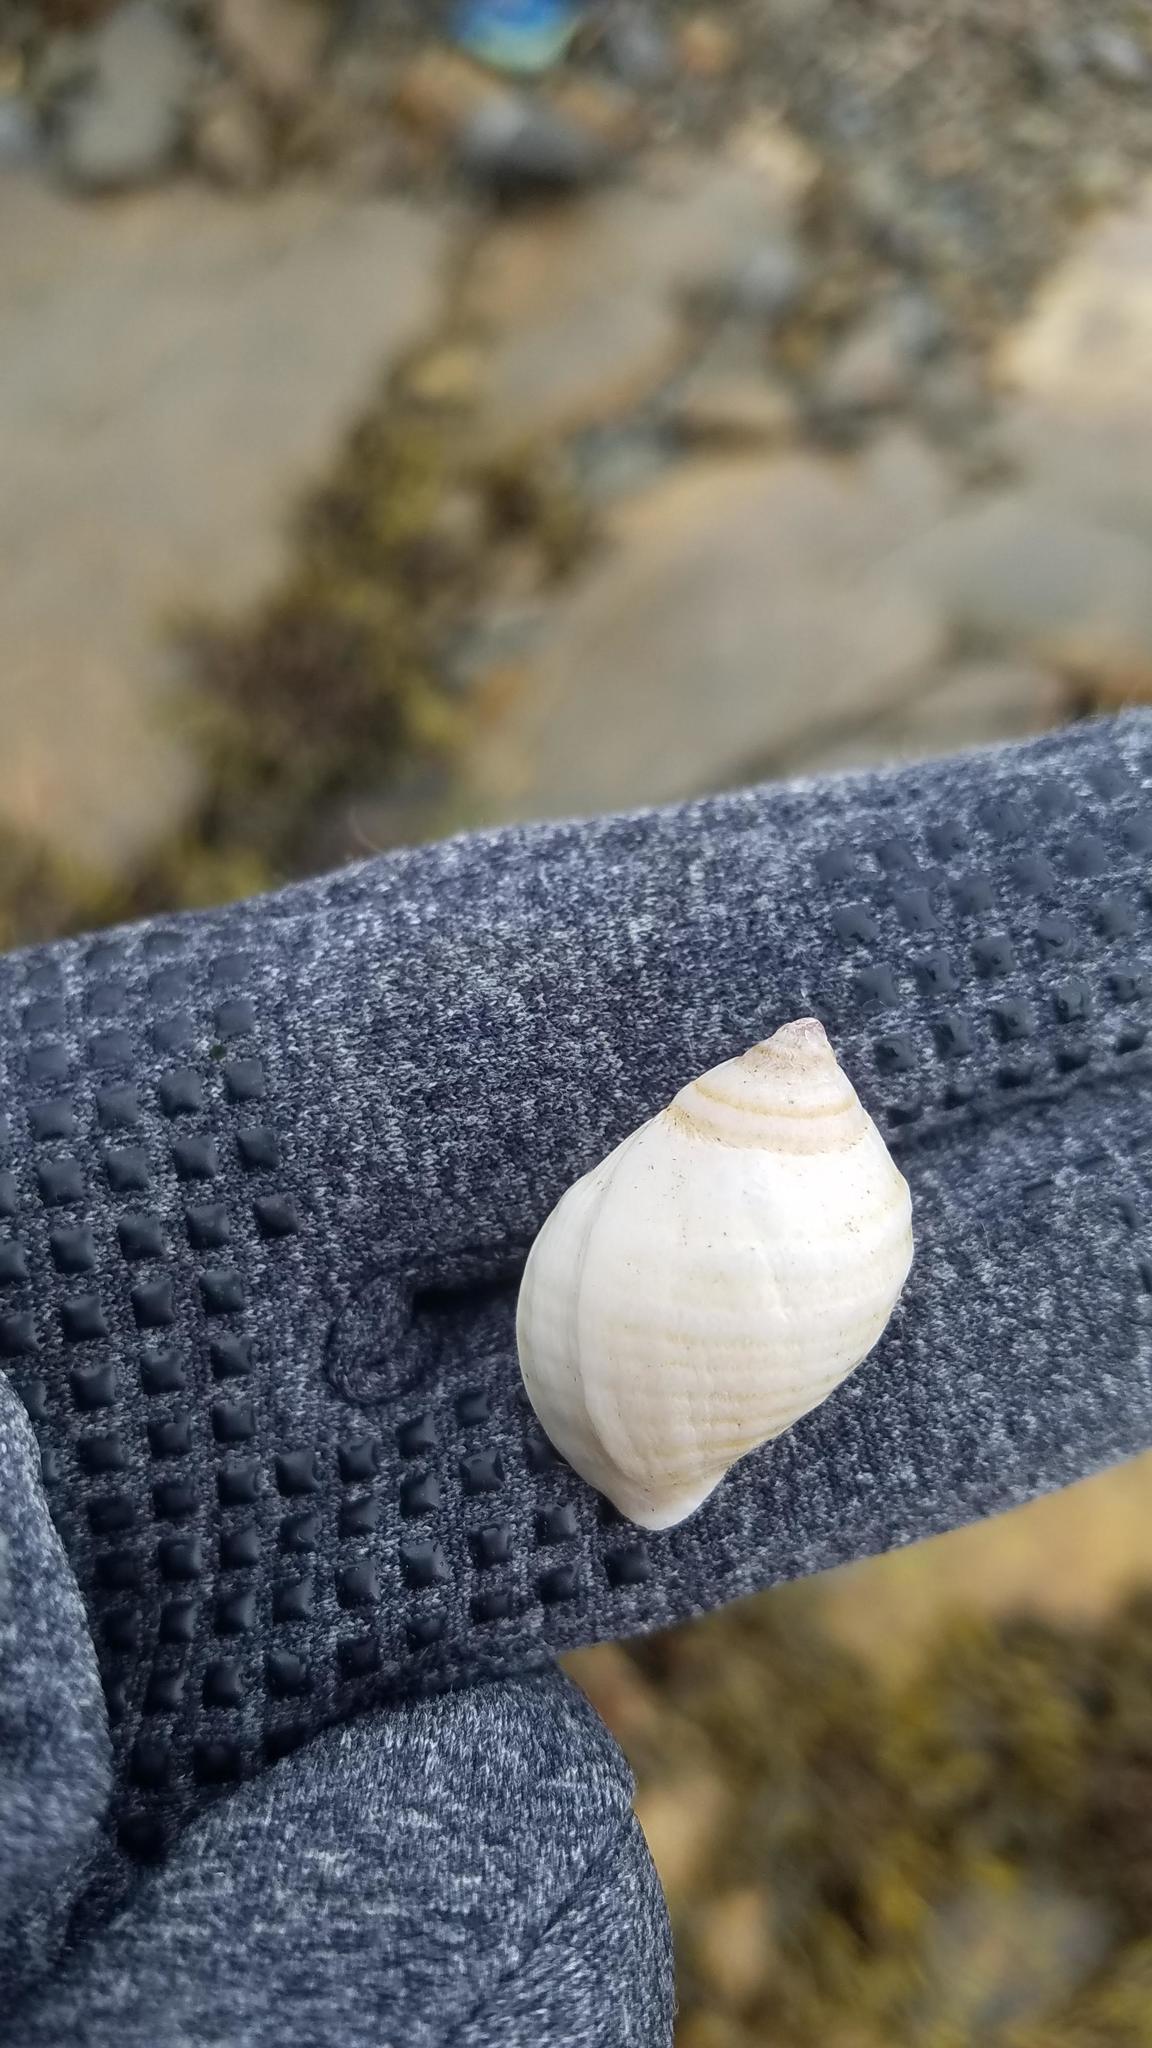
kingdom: Animalia
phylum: Mollusca
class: Gastropoda
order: Neogastropoda
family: Muricidae
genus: Nucella
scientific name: Nucella lapillus
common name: Dog whelk
